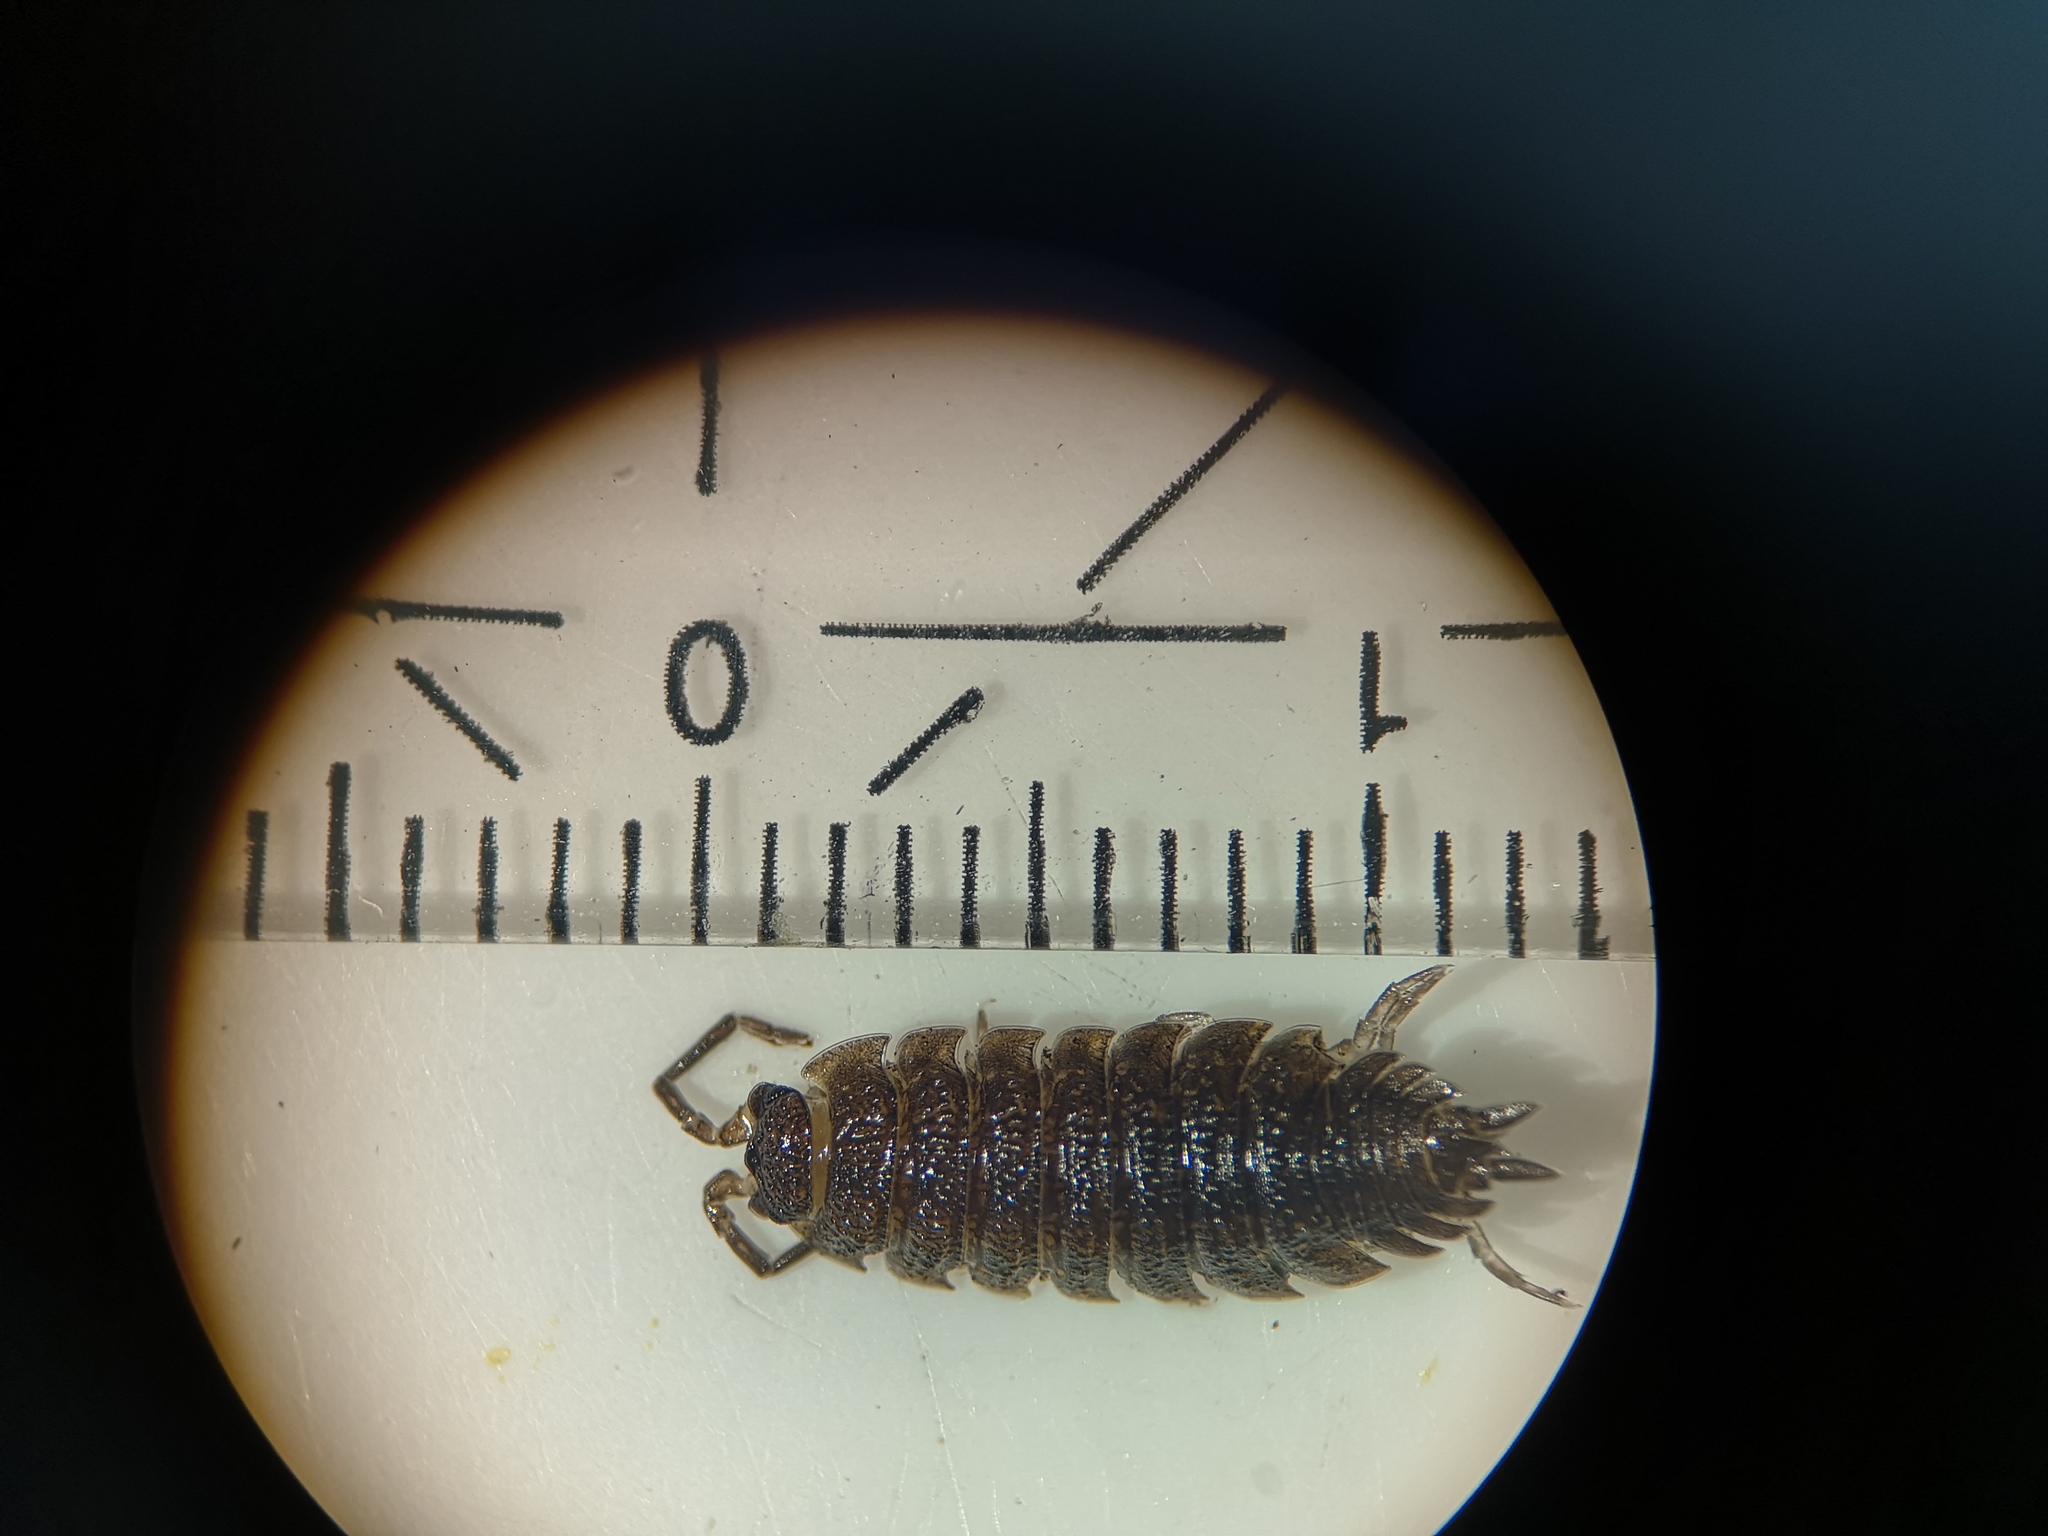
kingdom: Animalia
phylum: Arthropoda
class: Malacostraca
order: Isopoda
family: Porcellionidae
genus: Porcellio
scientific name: Porcellio scaber
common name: Common rough woodlouse
